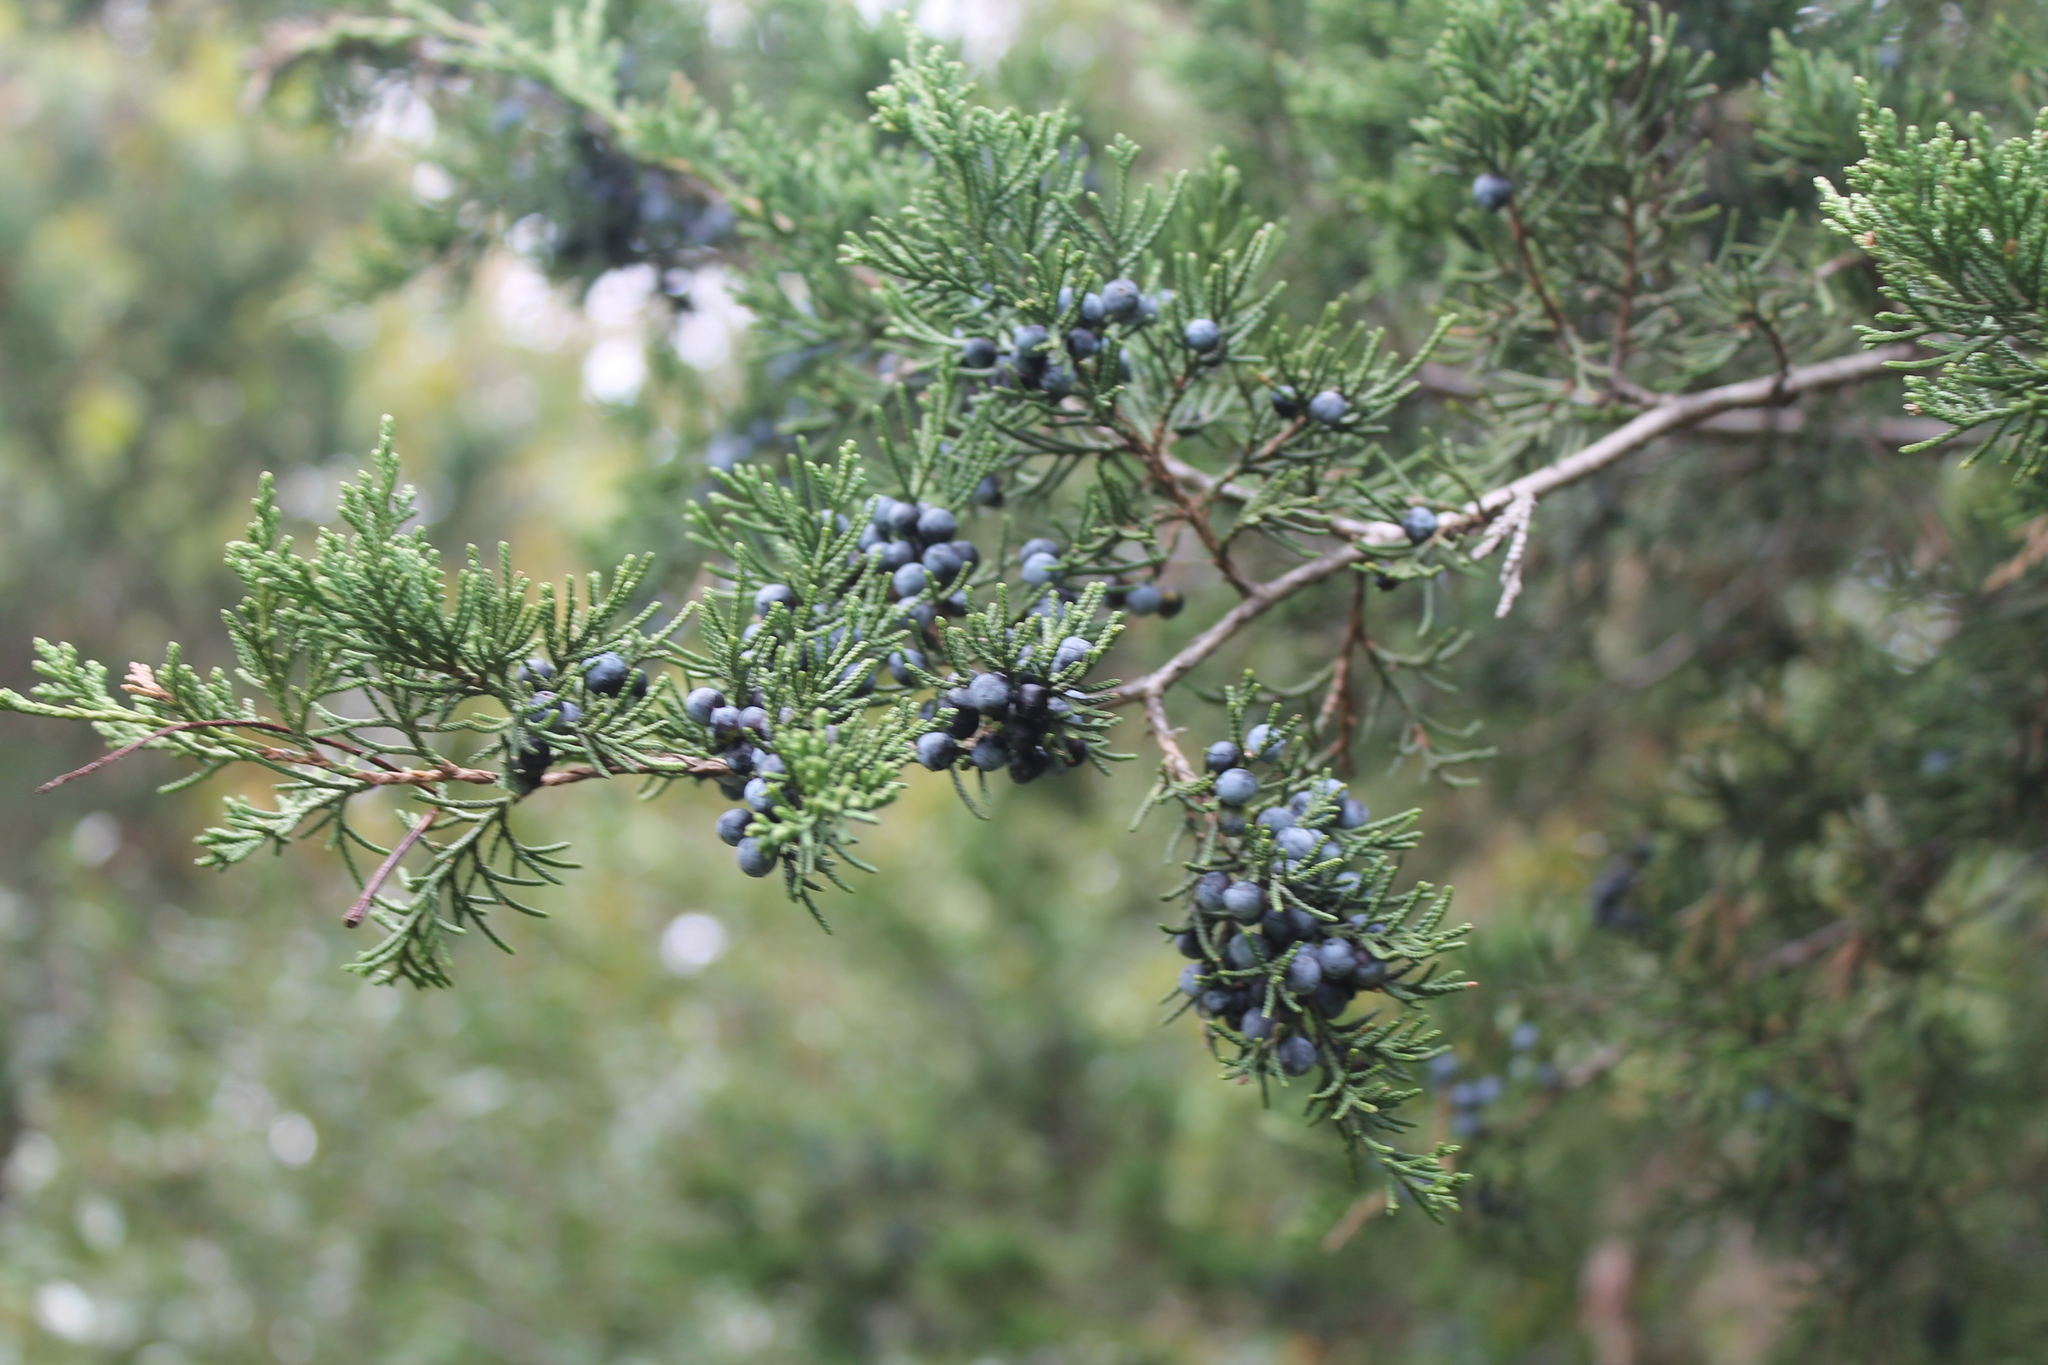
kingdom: Plantae
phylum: Tracheophyta
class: Pinopsida
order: Pinales
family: Cupressaceae
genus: Juniperus
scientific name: Juniperus virginiana
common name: Red juniper
